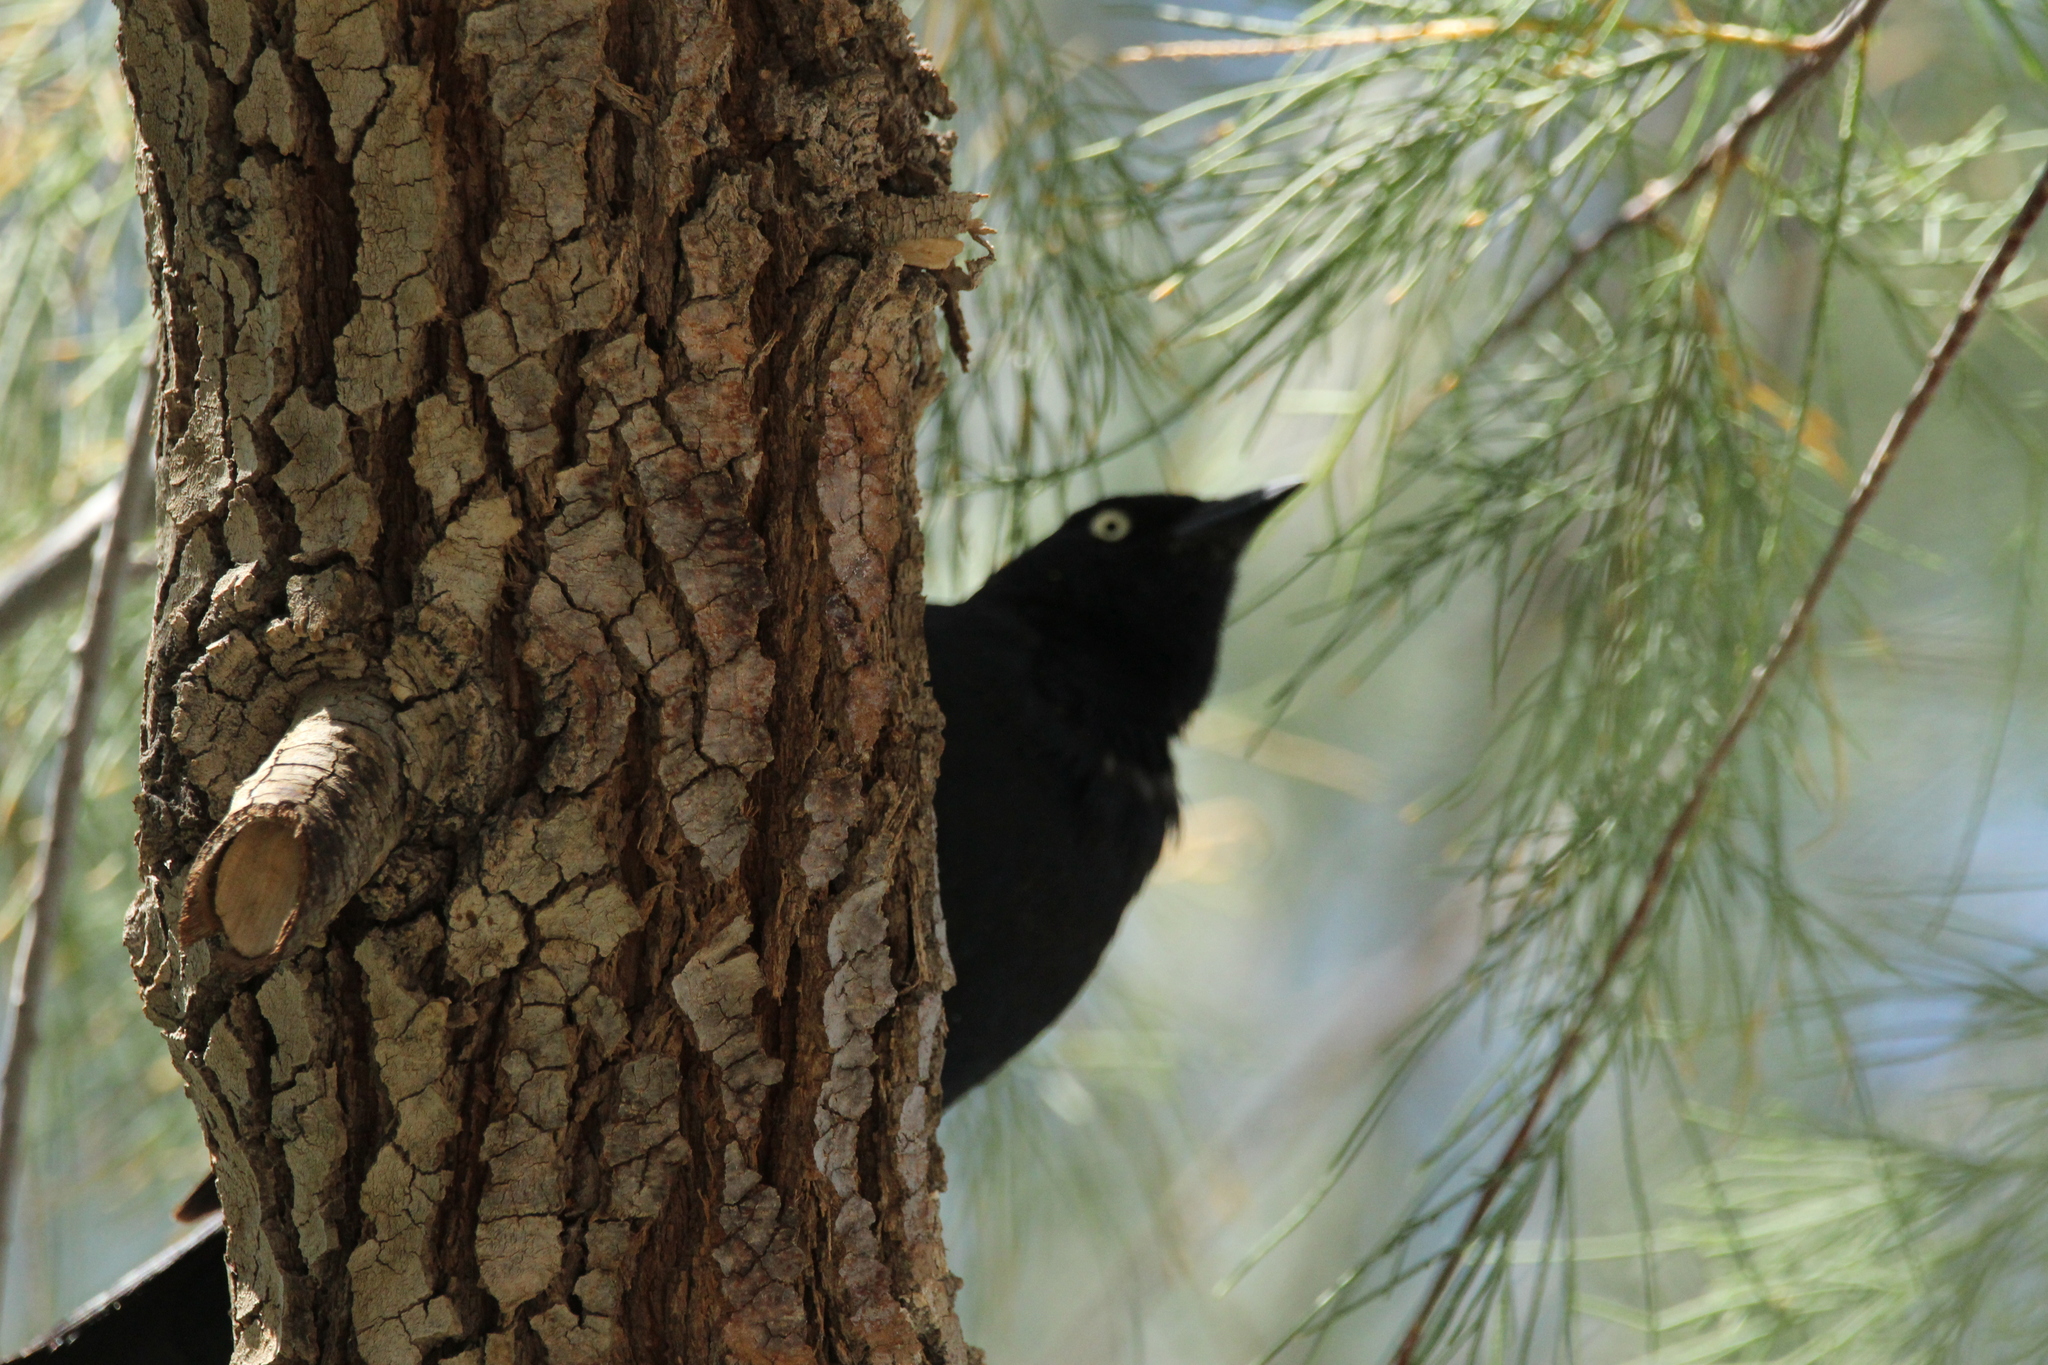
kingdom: Animalia
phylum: Chordata
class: Aves
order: Passeriformes
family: Icteridae
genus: Euphagus
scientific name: Euphagus cyanocephalus
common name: Brewer's blackbird
